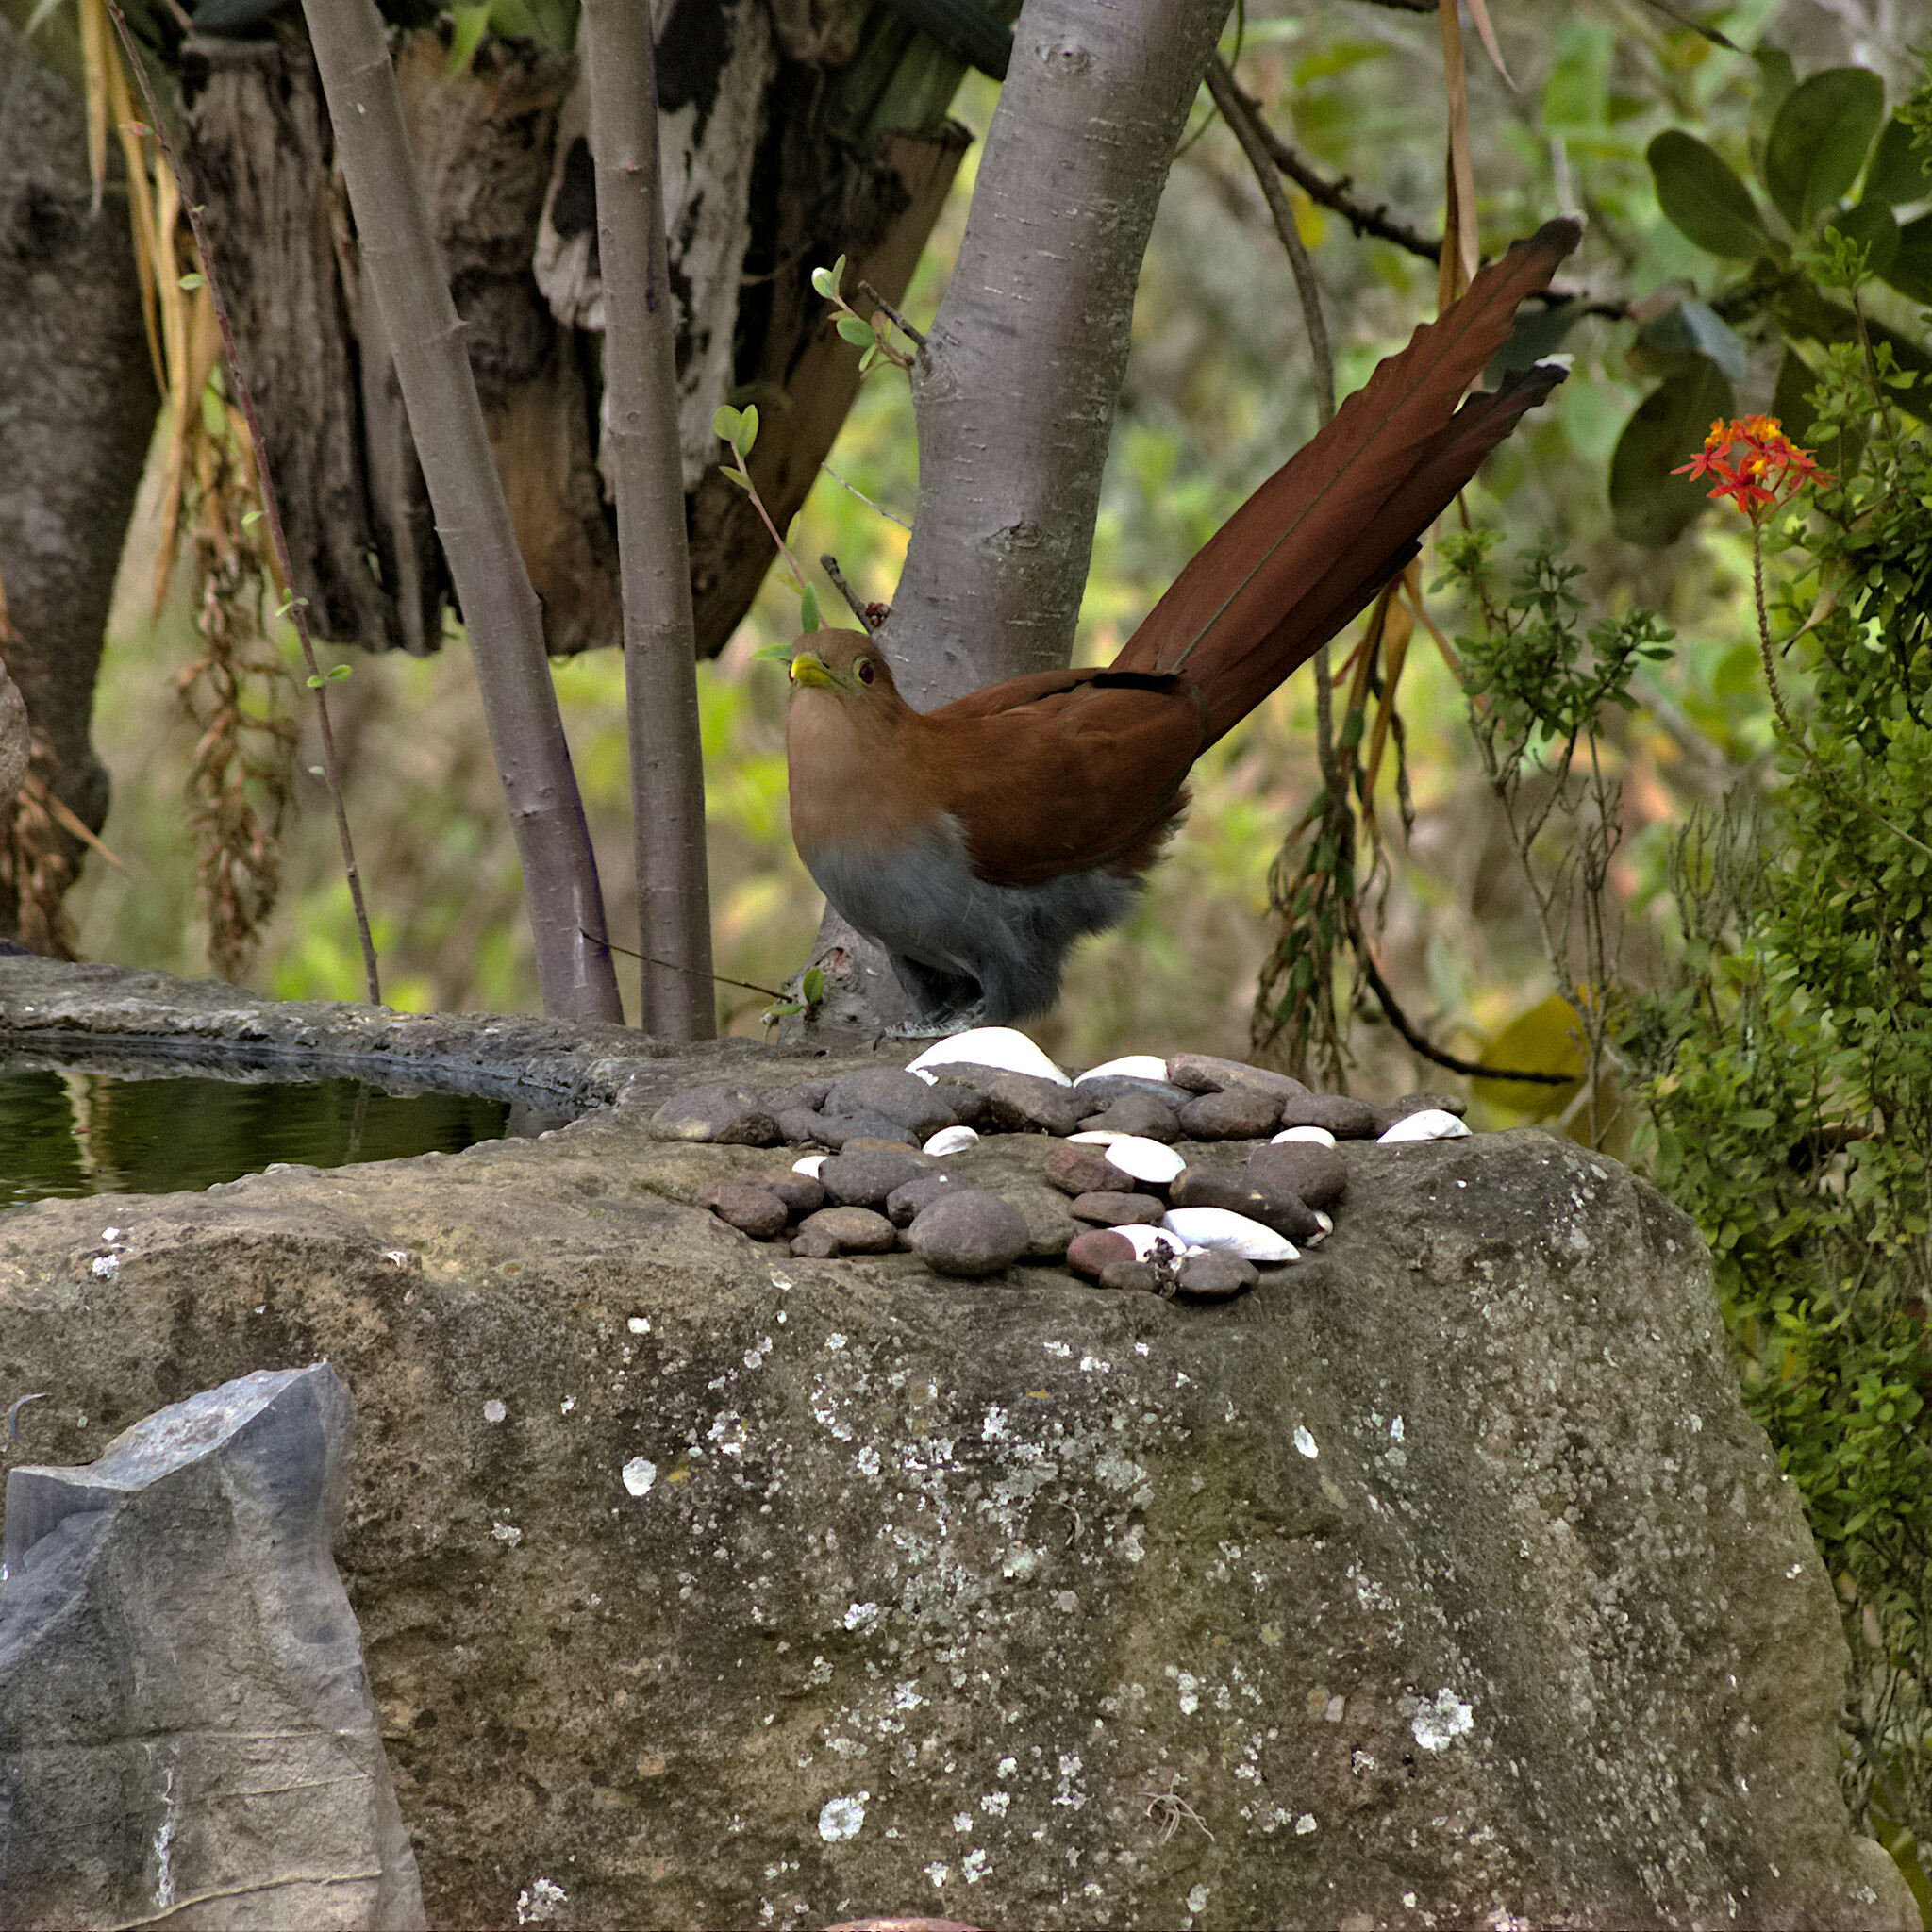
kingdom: Animalia
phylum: Chordata
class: Aves
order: Cuculiformes
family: Cuculidae
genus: Piaya
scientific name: Piaya cayana
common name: Squirrel cuckoo
